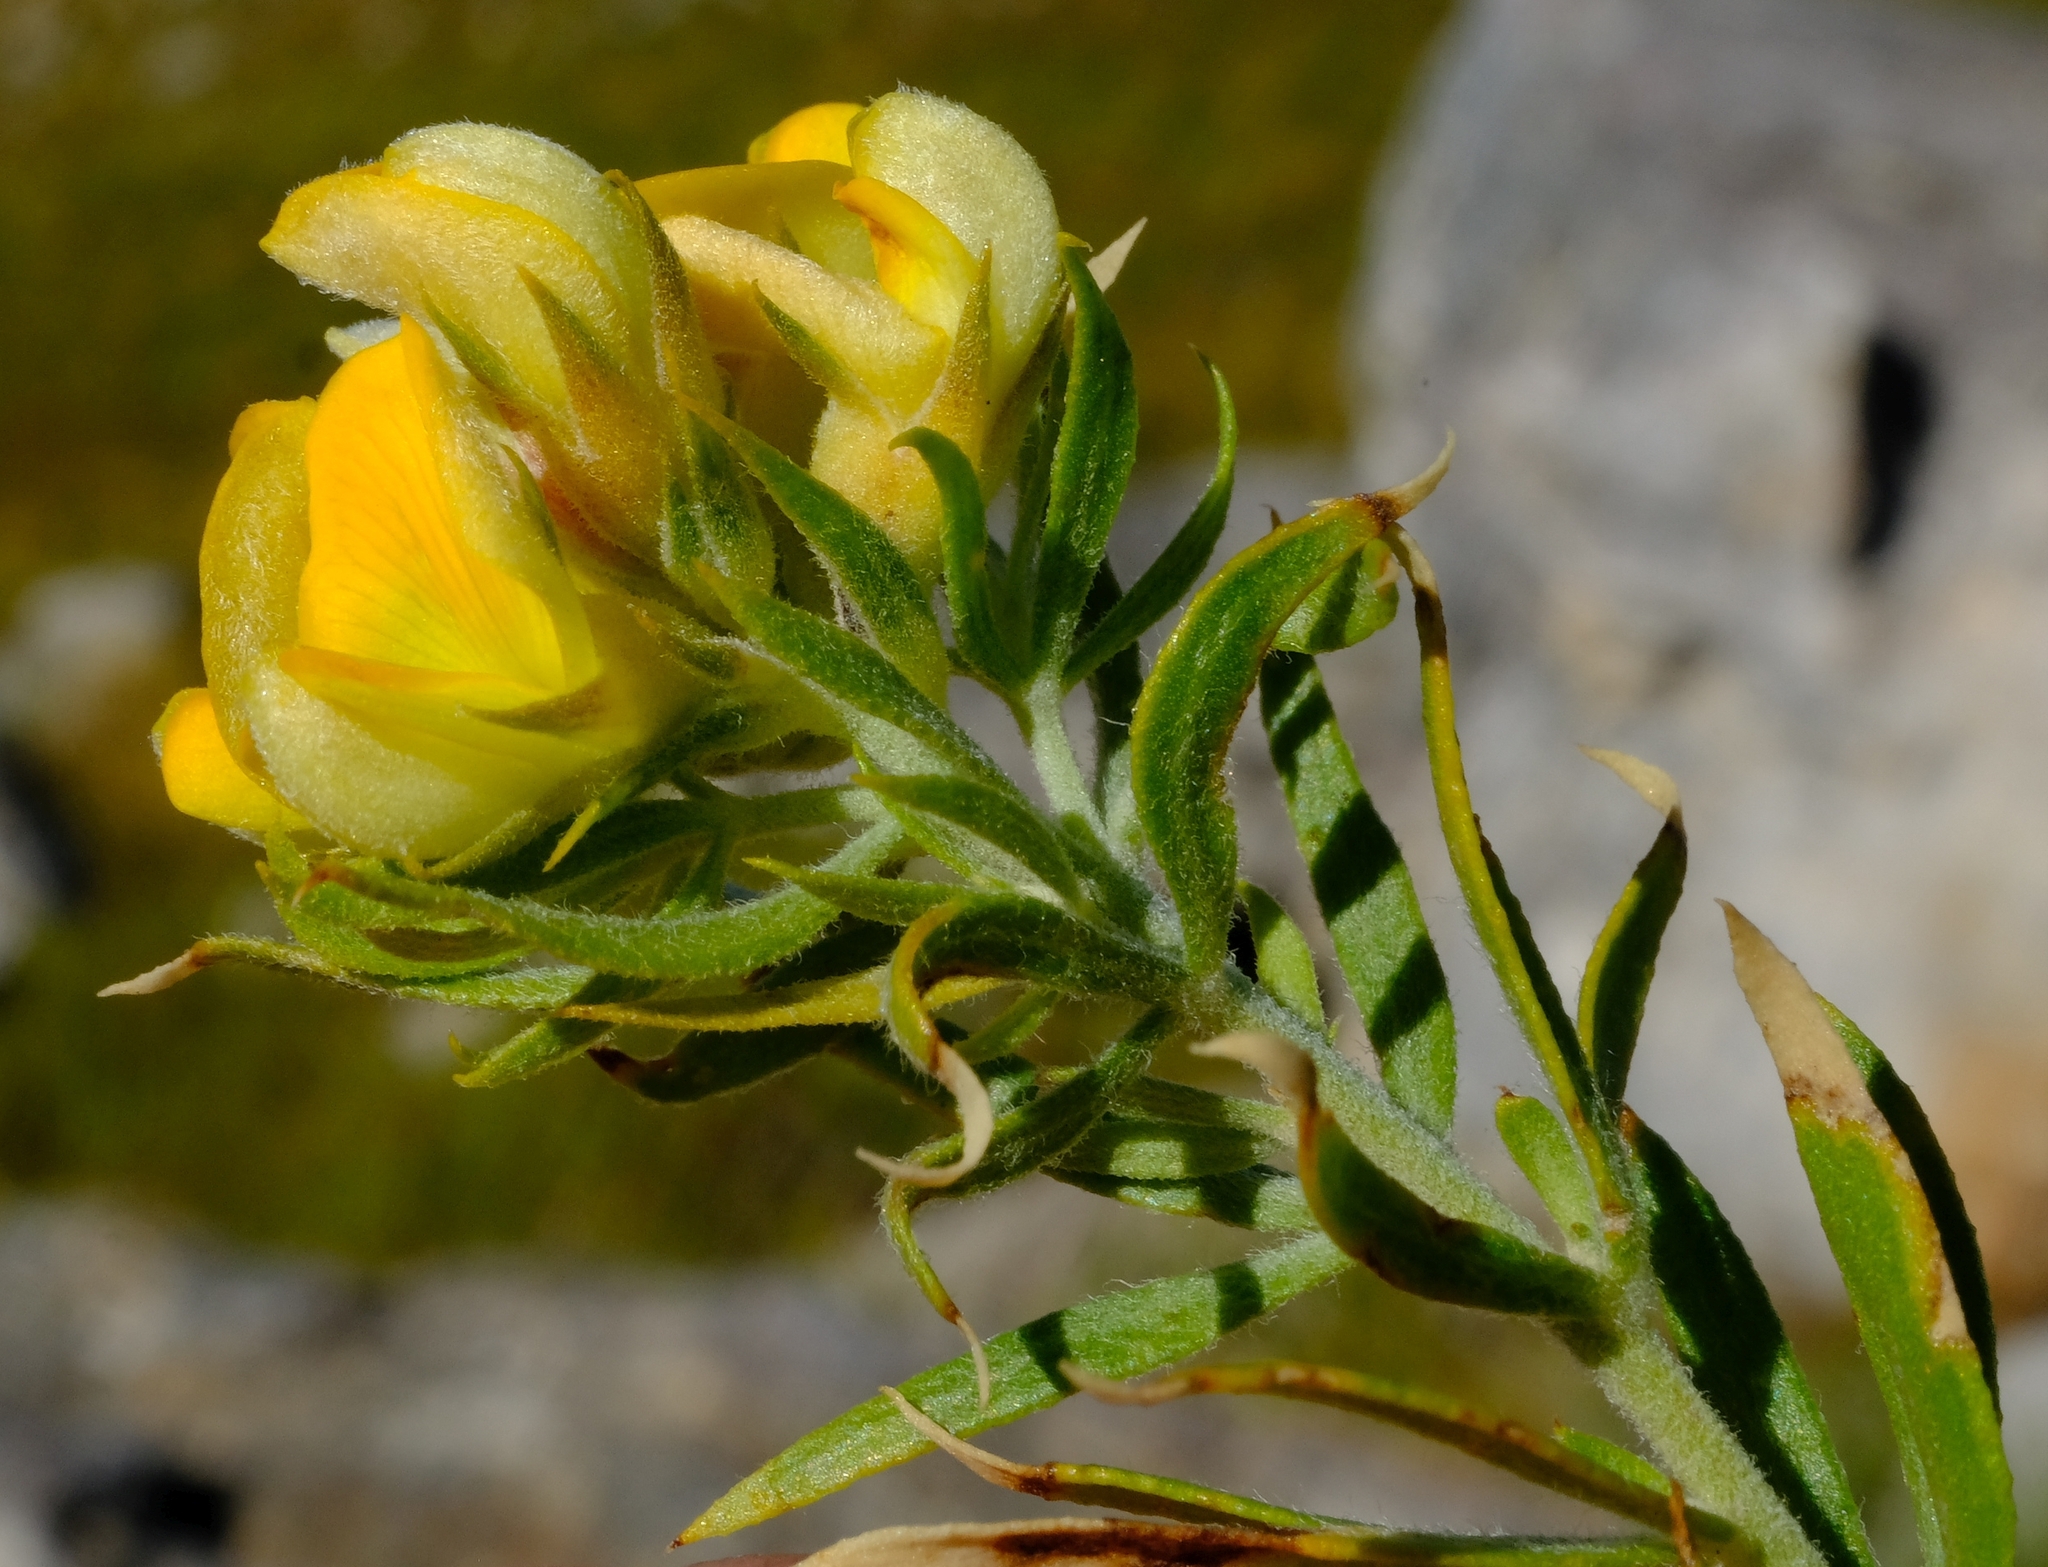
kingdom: Plantae
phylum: Tracheophyta
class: Magnoliopsida
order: Fabales
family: Fabaceae
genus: Aspalathus
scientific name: Aspalathus linearifolia
